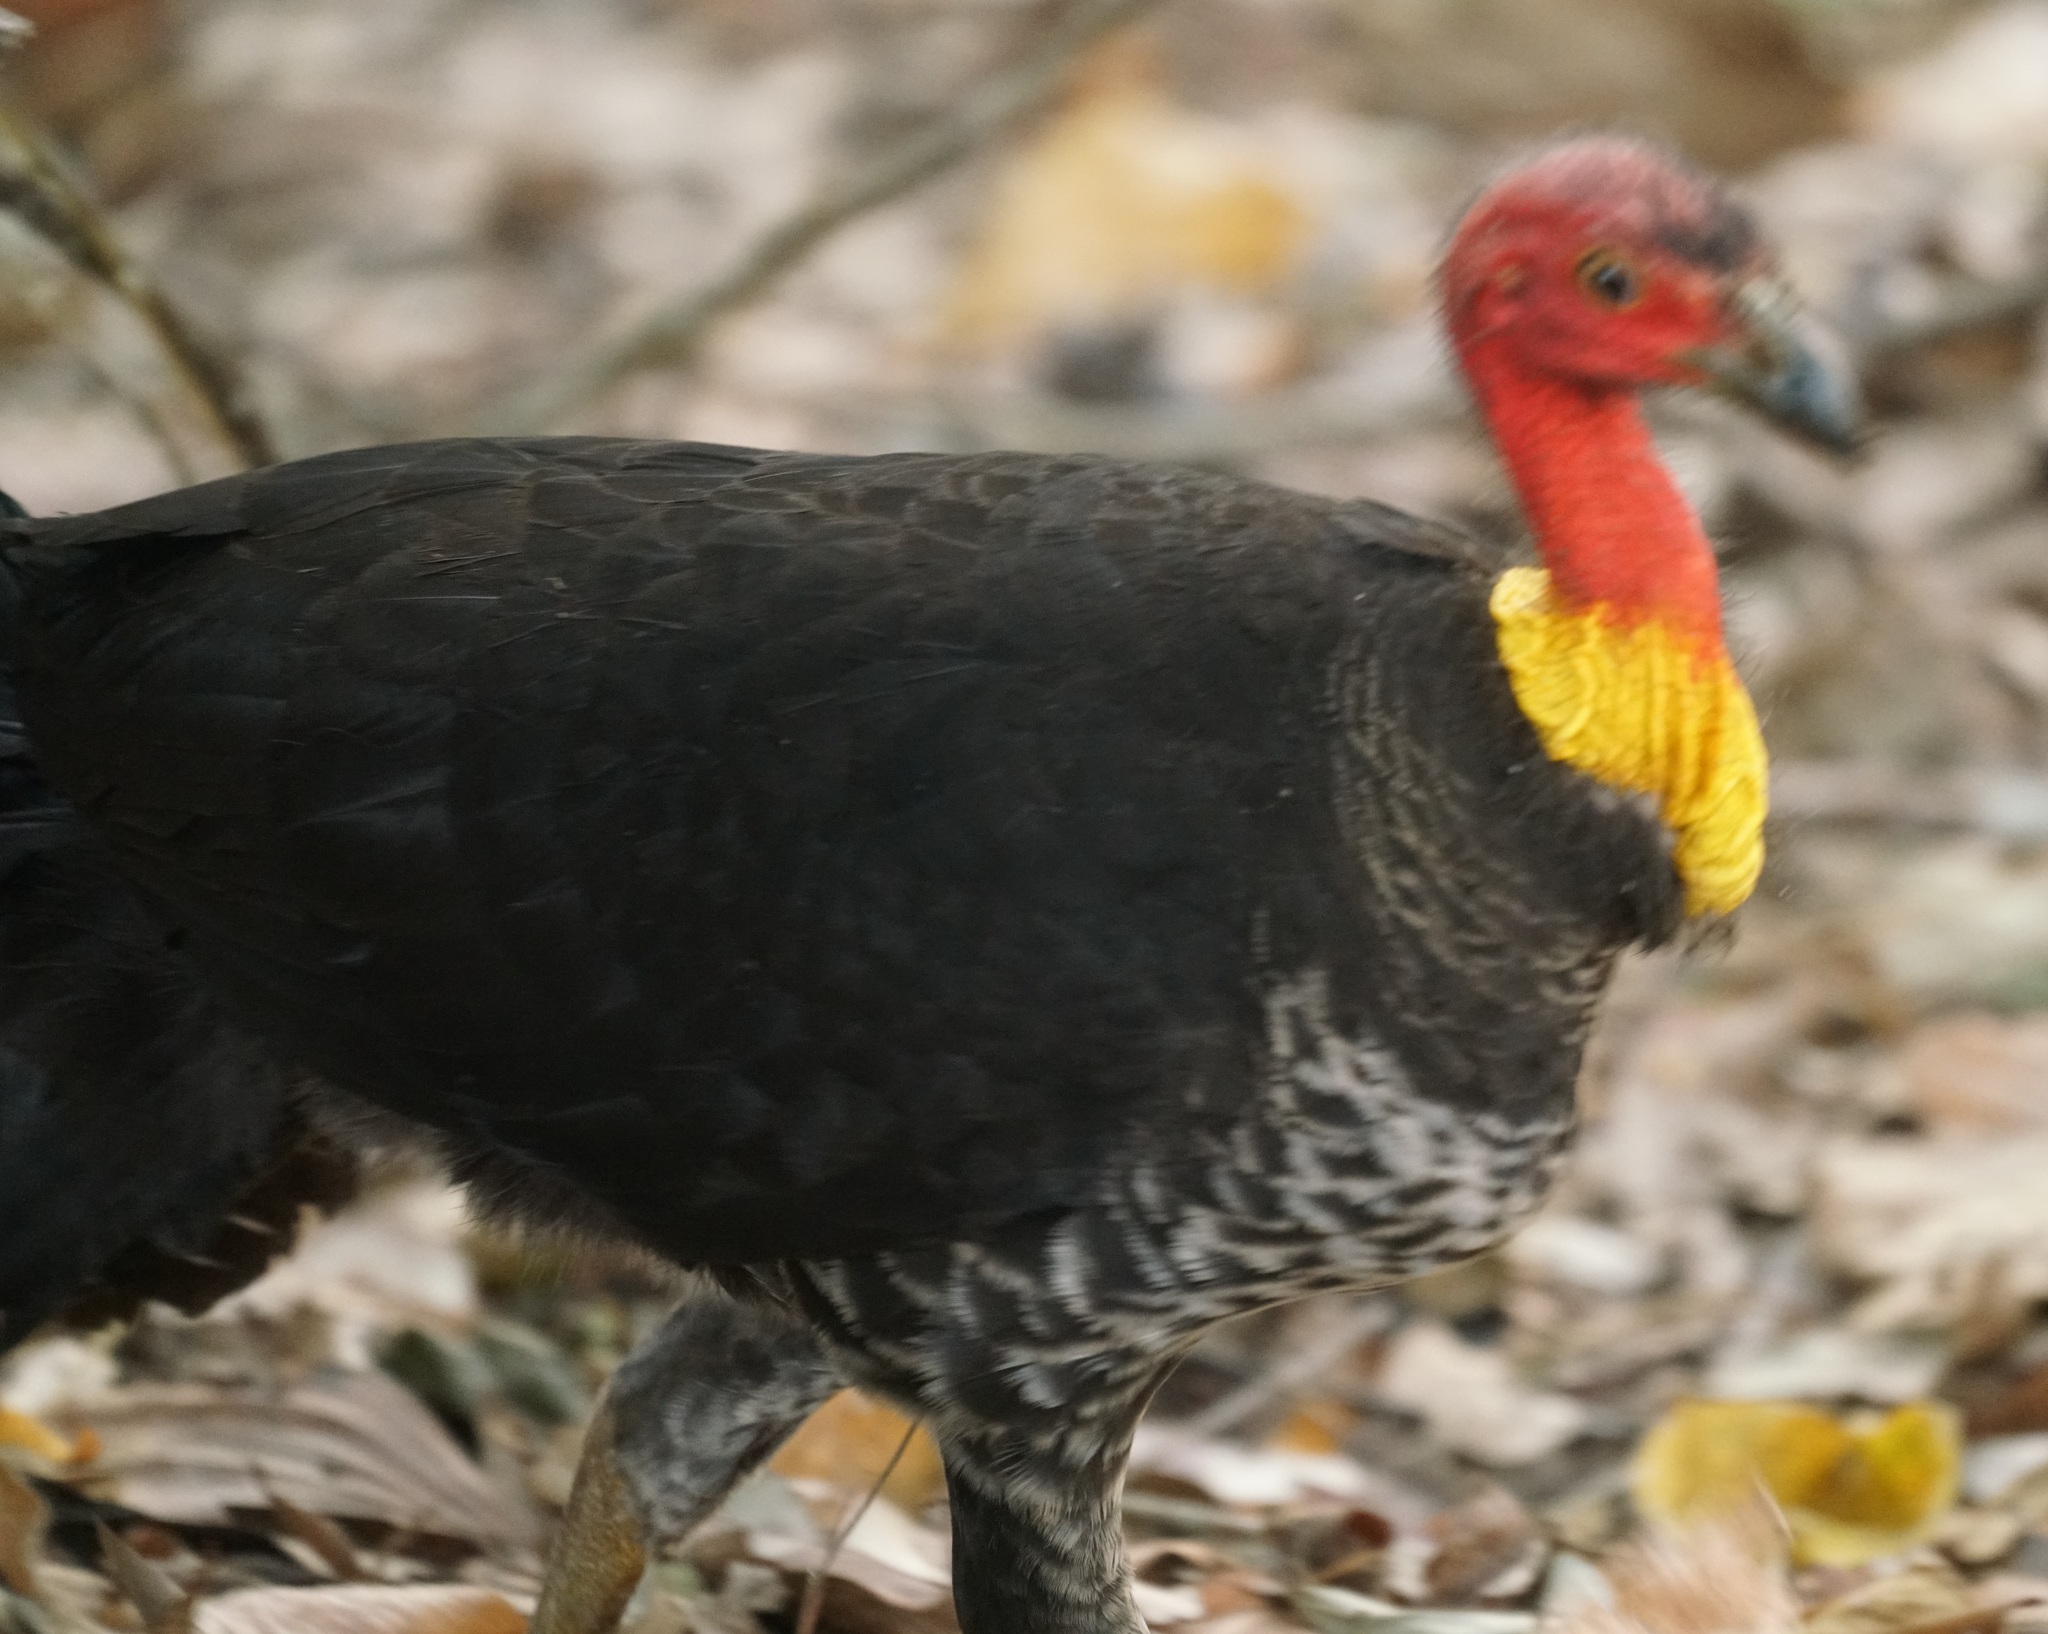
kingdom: Animalia
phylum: Chordata
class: Aves
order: Galliformes
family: Megapodiidae
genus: Alectura
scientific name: Alectura lathami
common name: Australian brushturkey
